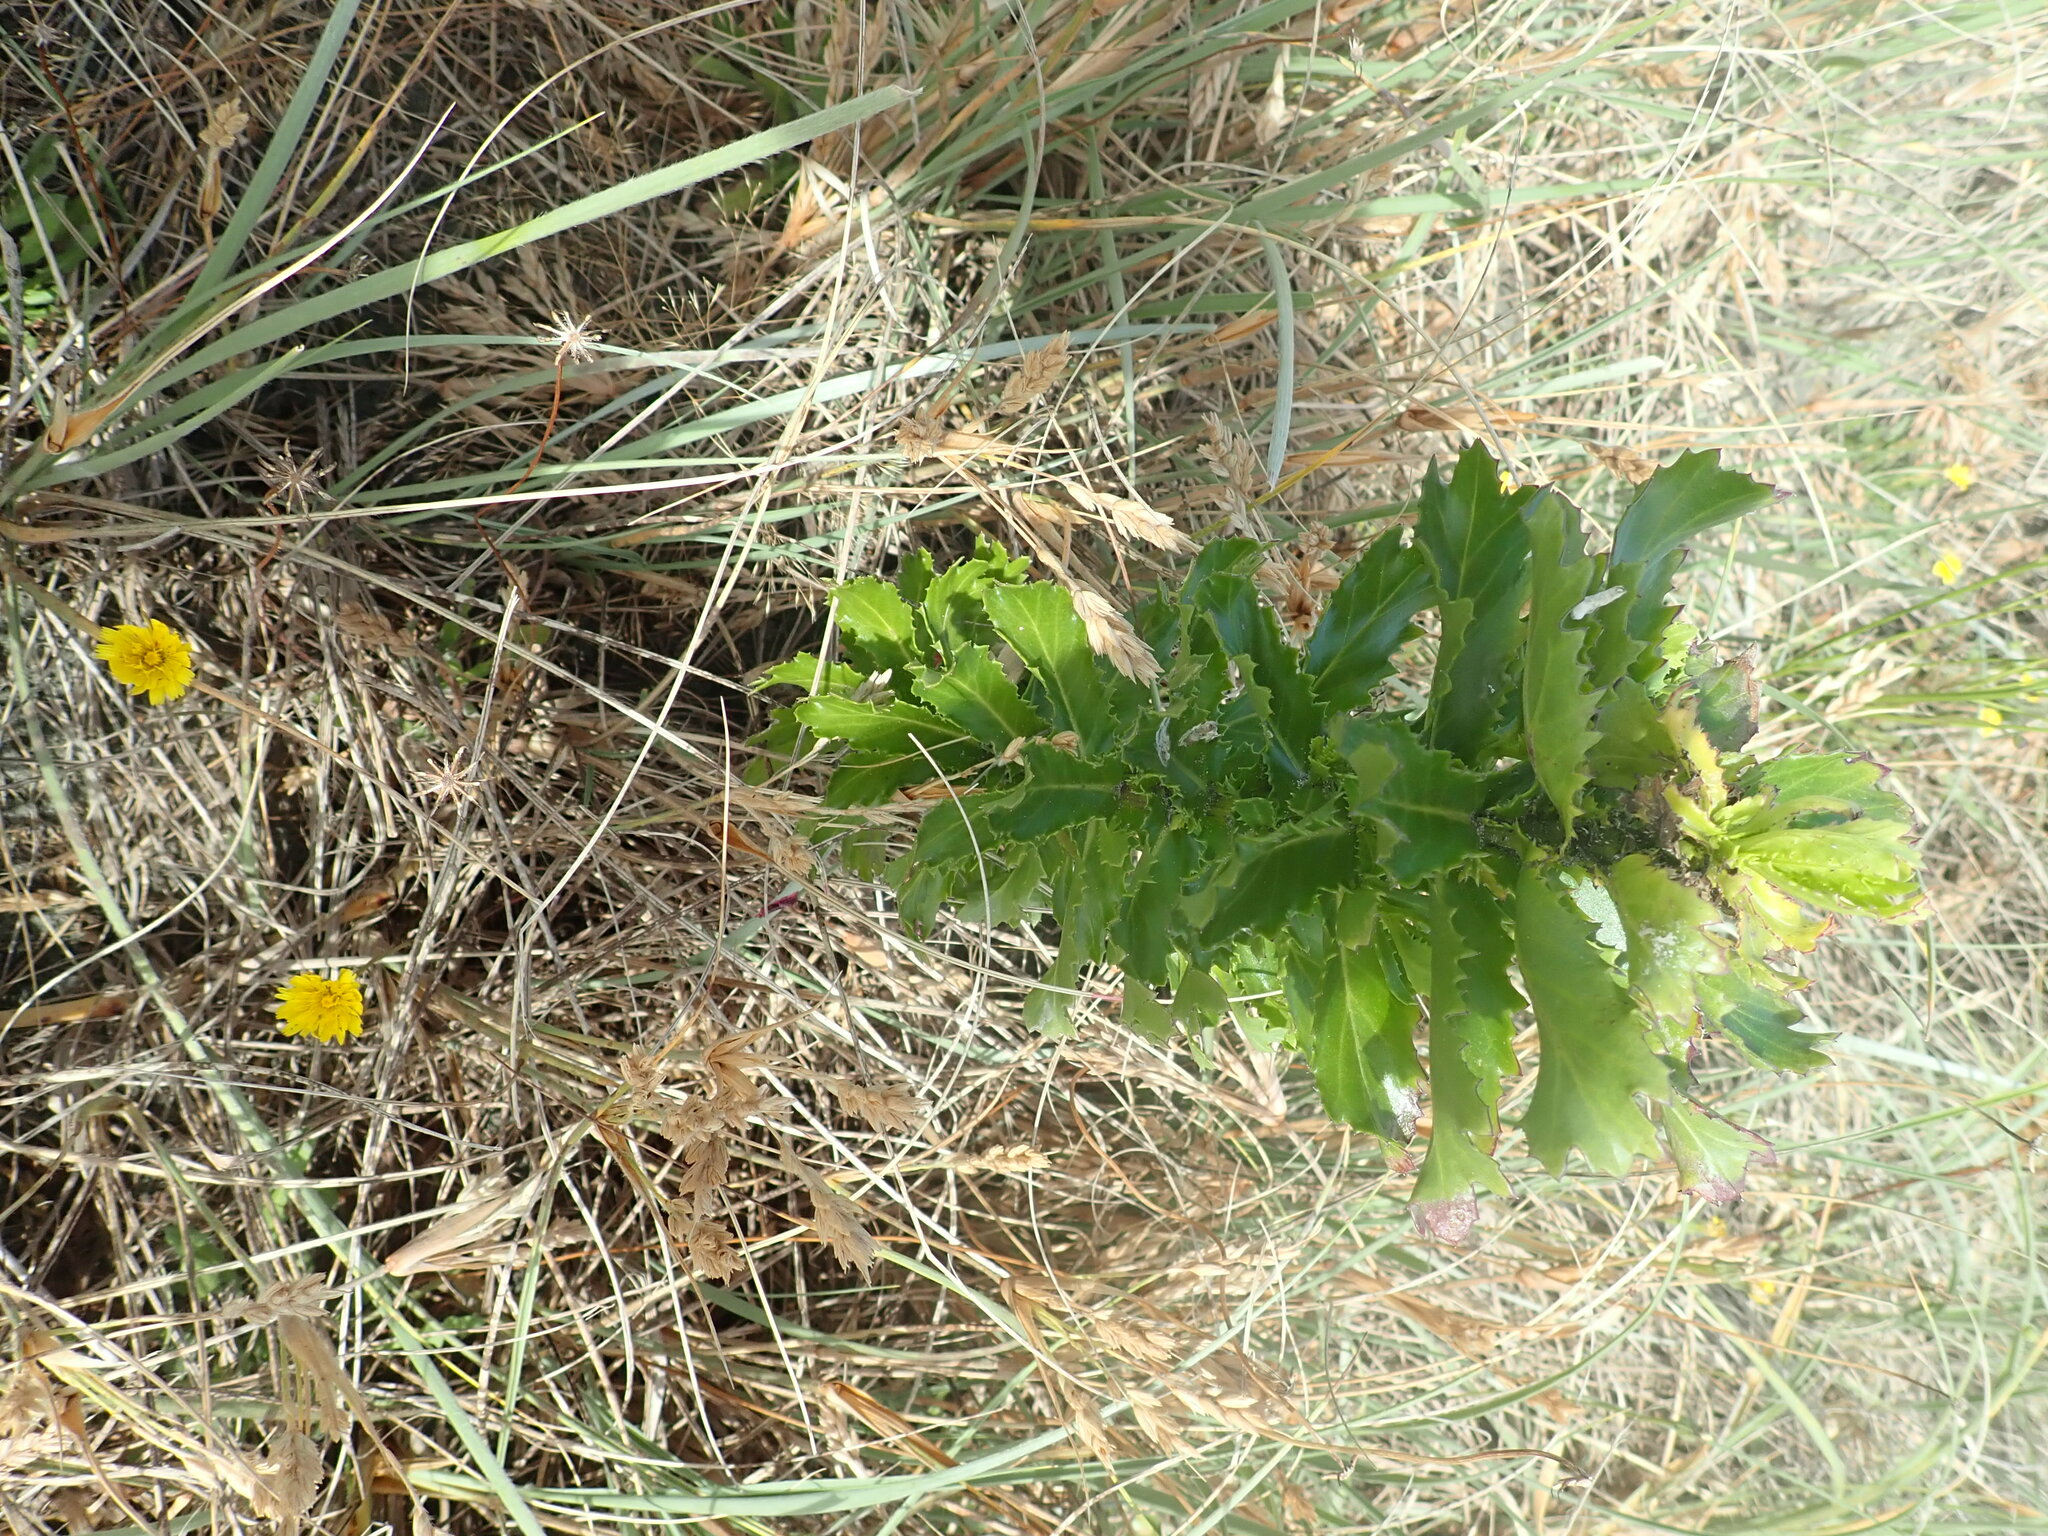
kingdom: Plantae
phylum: Tracheophyta
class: Magnoliopsida
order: Asterales
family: Asteraceae
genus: Senecio
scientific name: Senecio glastifolius
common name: Woad-leaved ragwort
